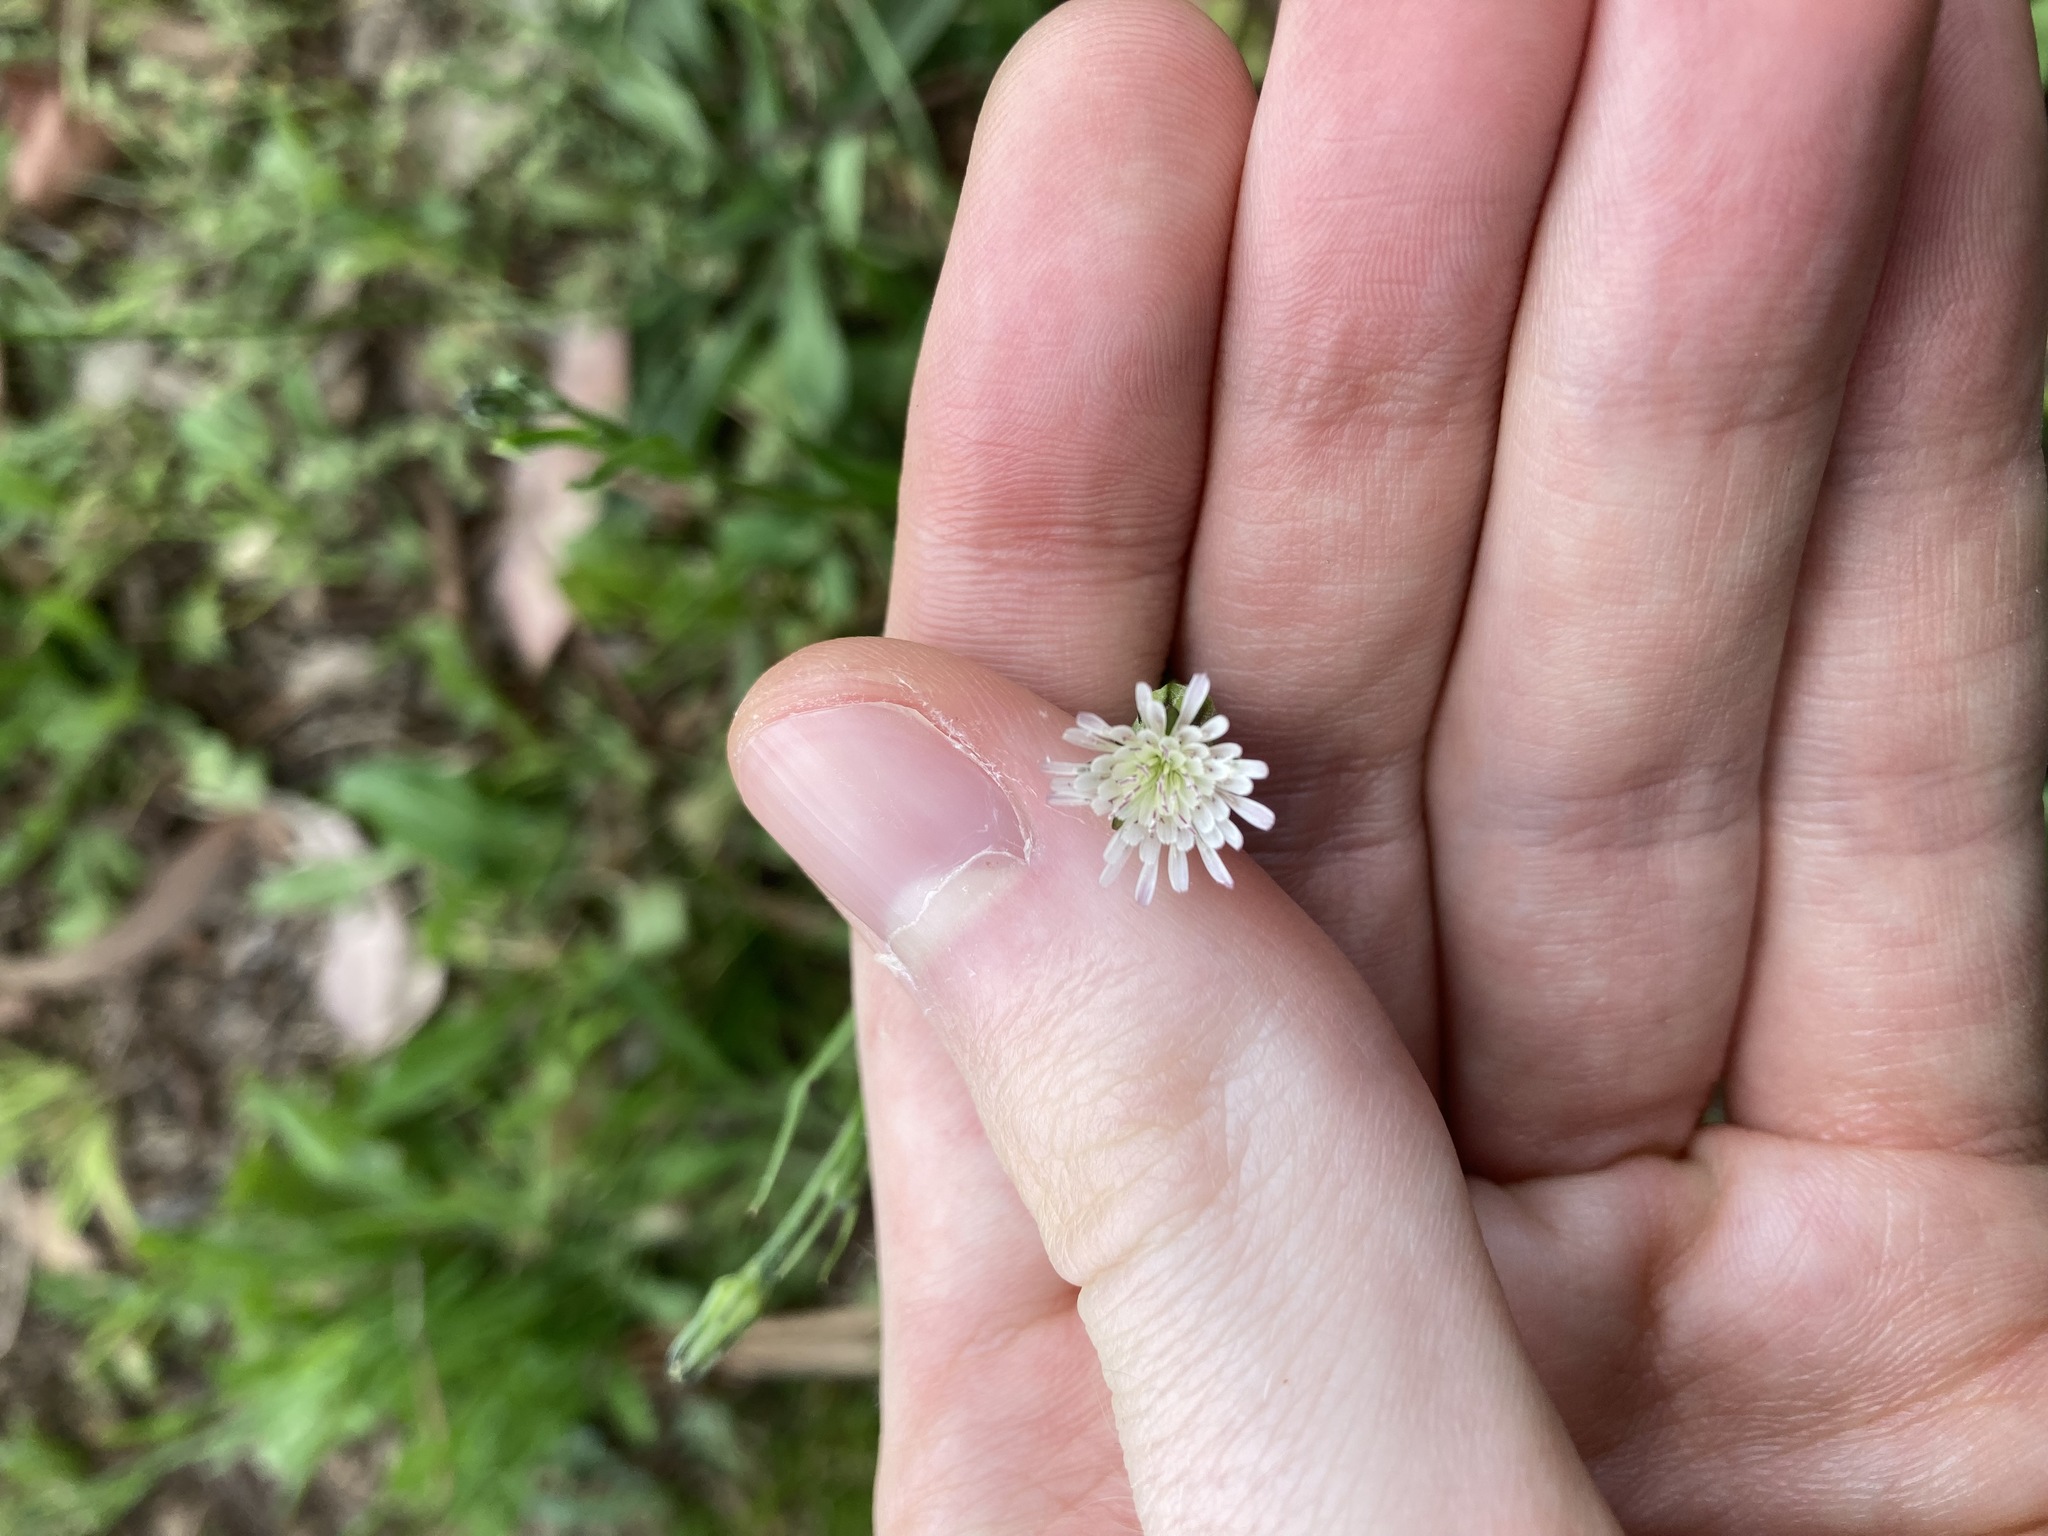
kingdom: Plantae
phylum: Tracheophyta
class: Magnoliopsida
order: Asterales
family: Asteraceae
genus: Hypochaeris
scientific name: Hypochaeris albiflora
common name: White flatweed
